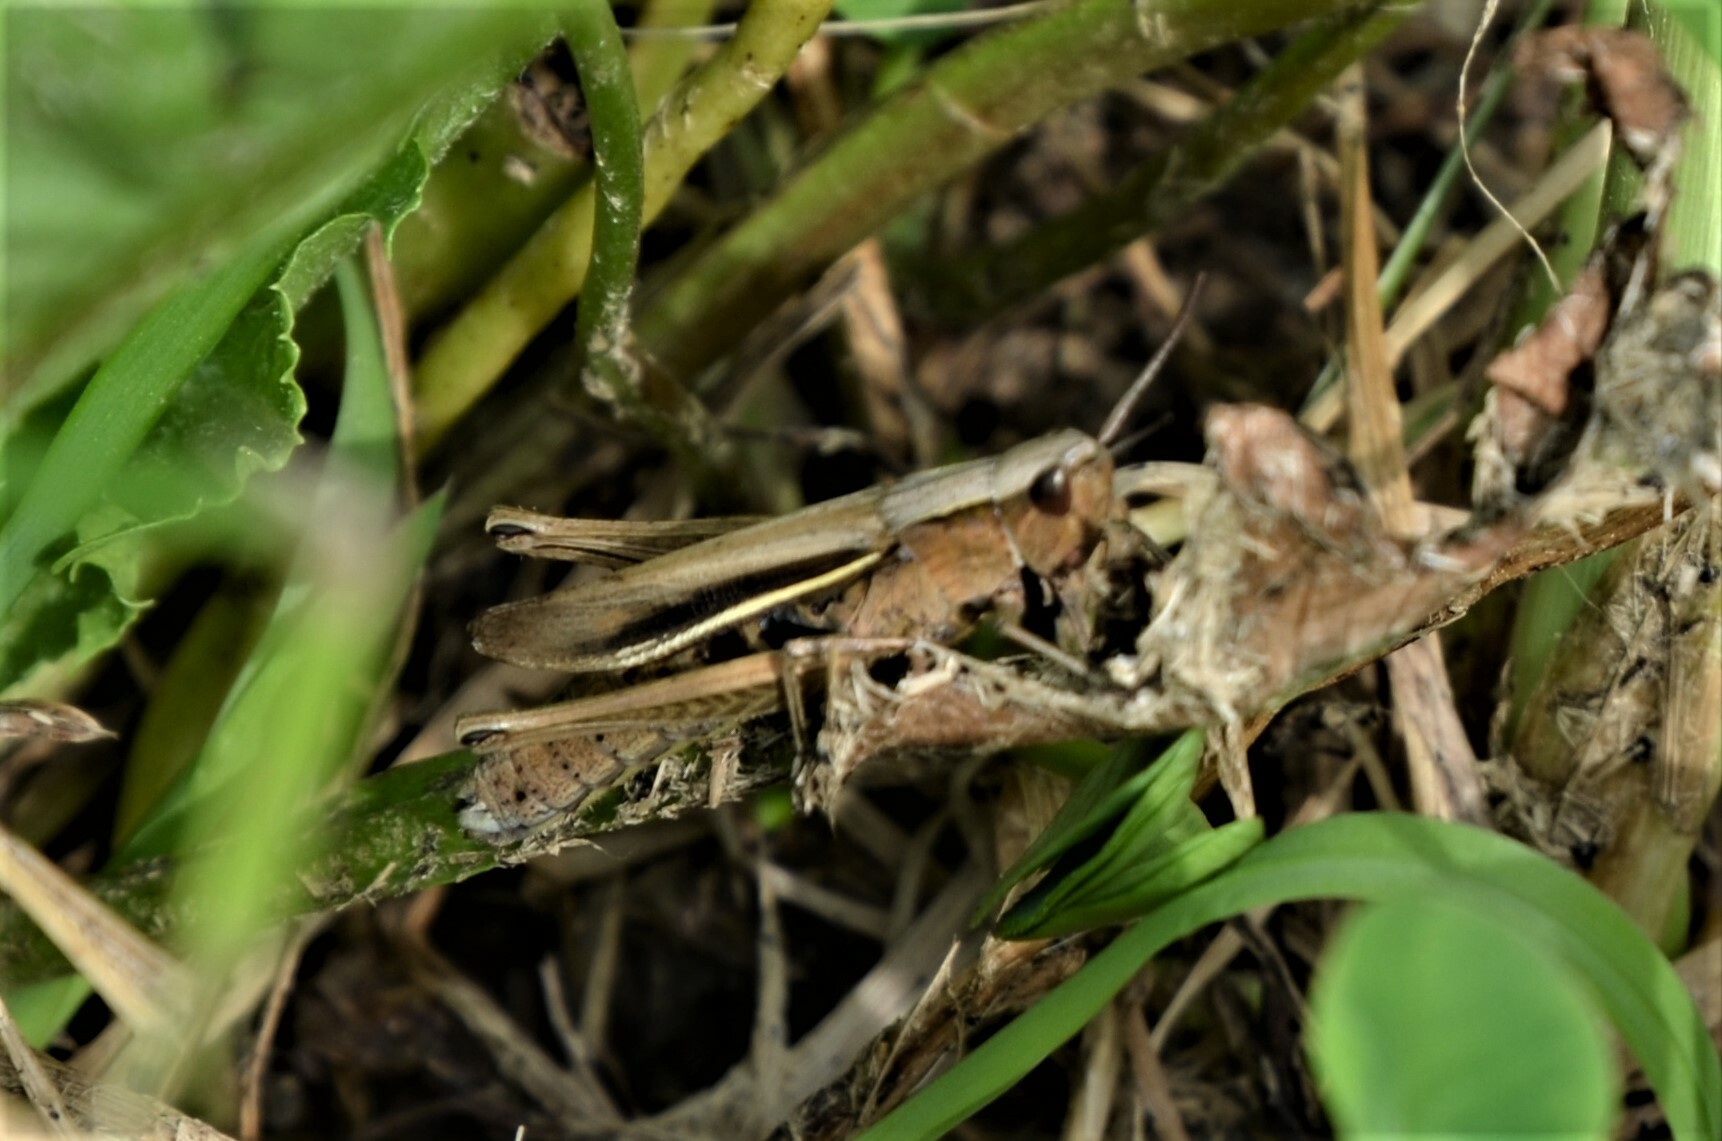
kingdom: Animalia
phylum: Arthropoda
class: Insecta
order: Orthoptera
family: Acrididae
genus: Chorthippus
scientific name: Chorthippus albomarginatus
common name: Lesser marsh grasshopper
